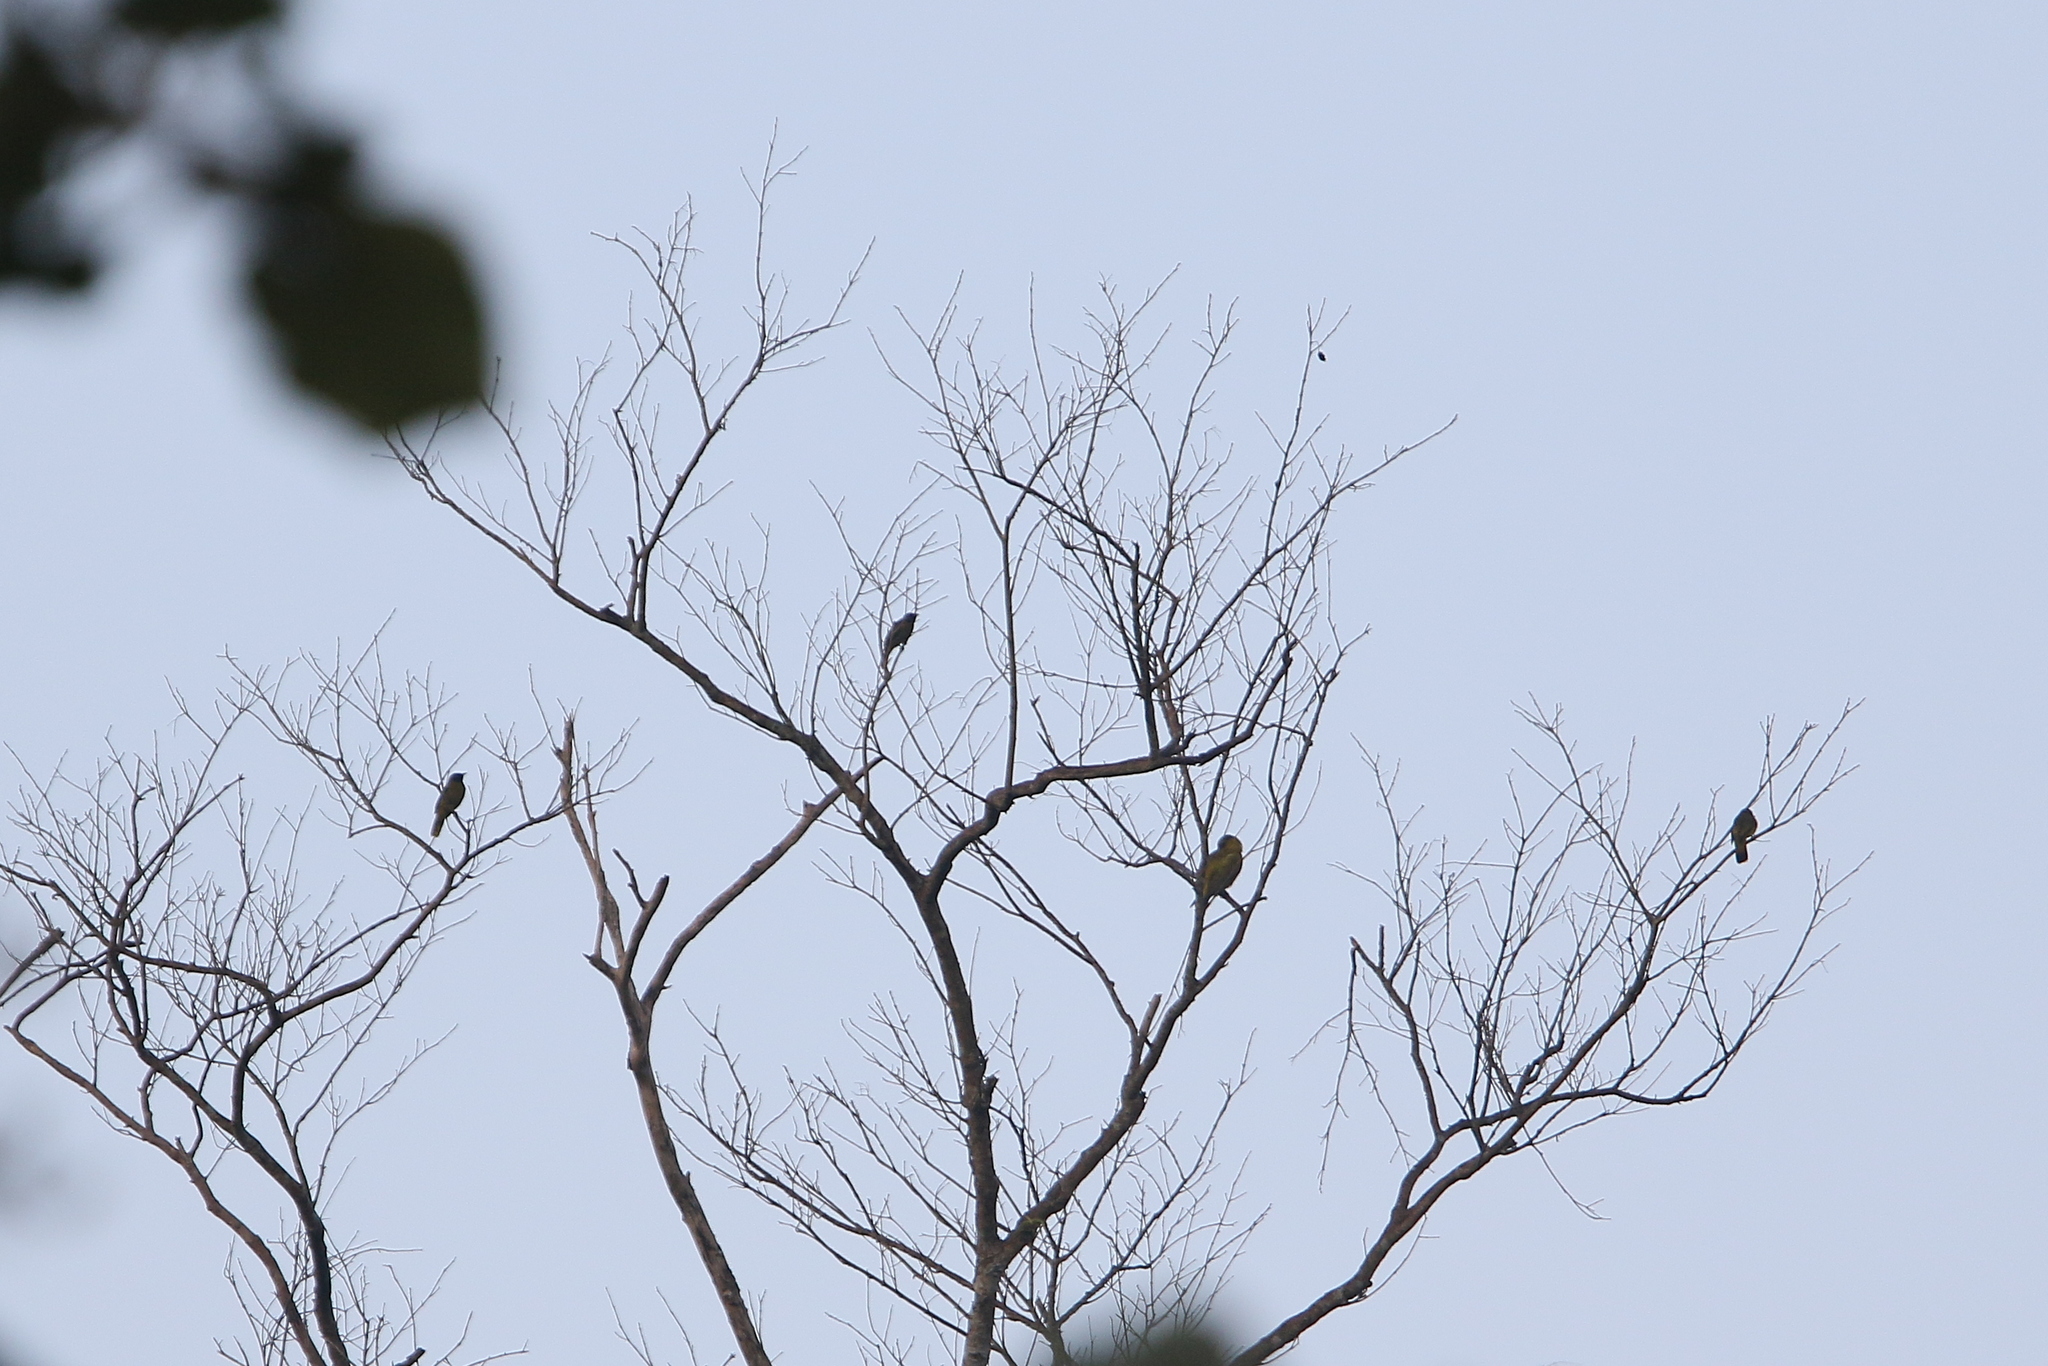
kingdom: Animalia
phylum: Chordata
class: Aves
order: Passeriformes
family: Oriolidae
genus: Oriolus
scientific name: Oriolus chinensis
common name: Black-naped oriole
